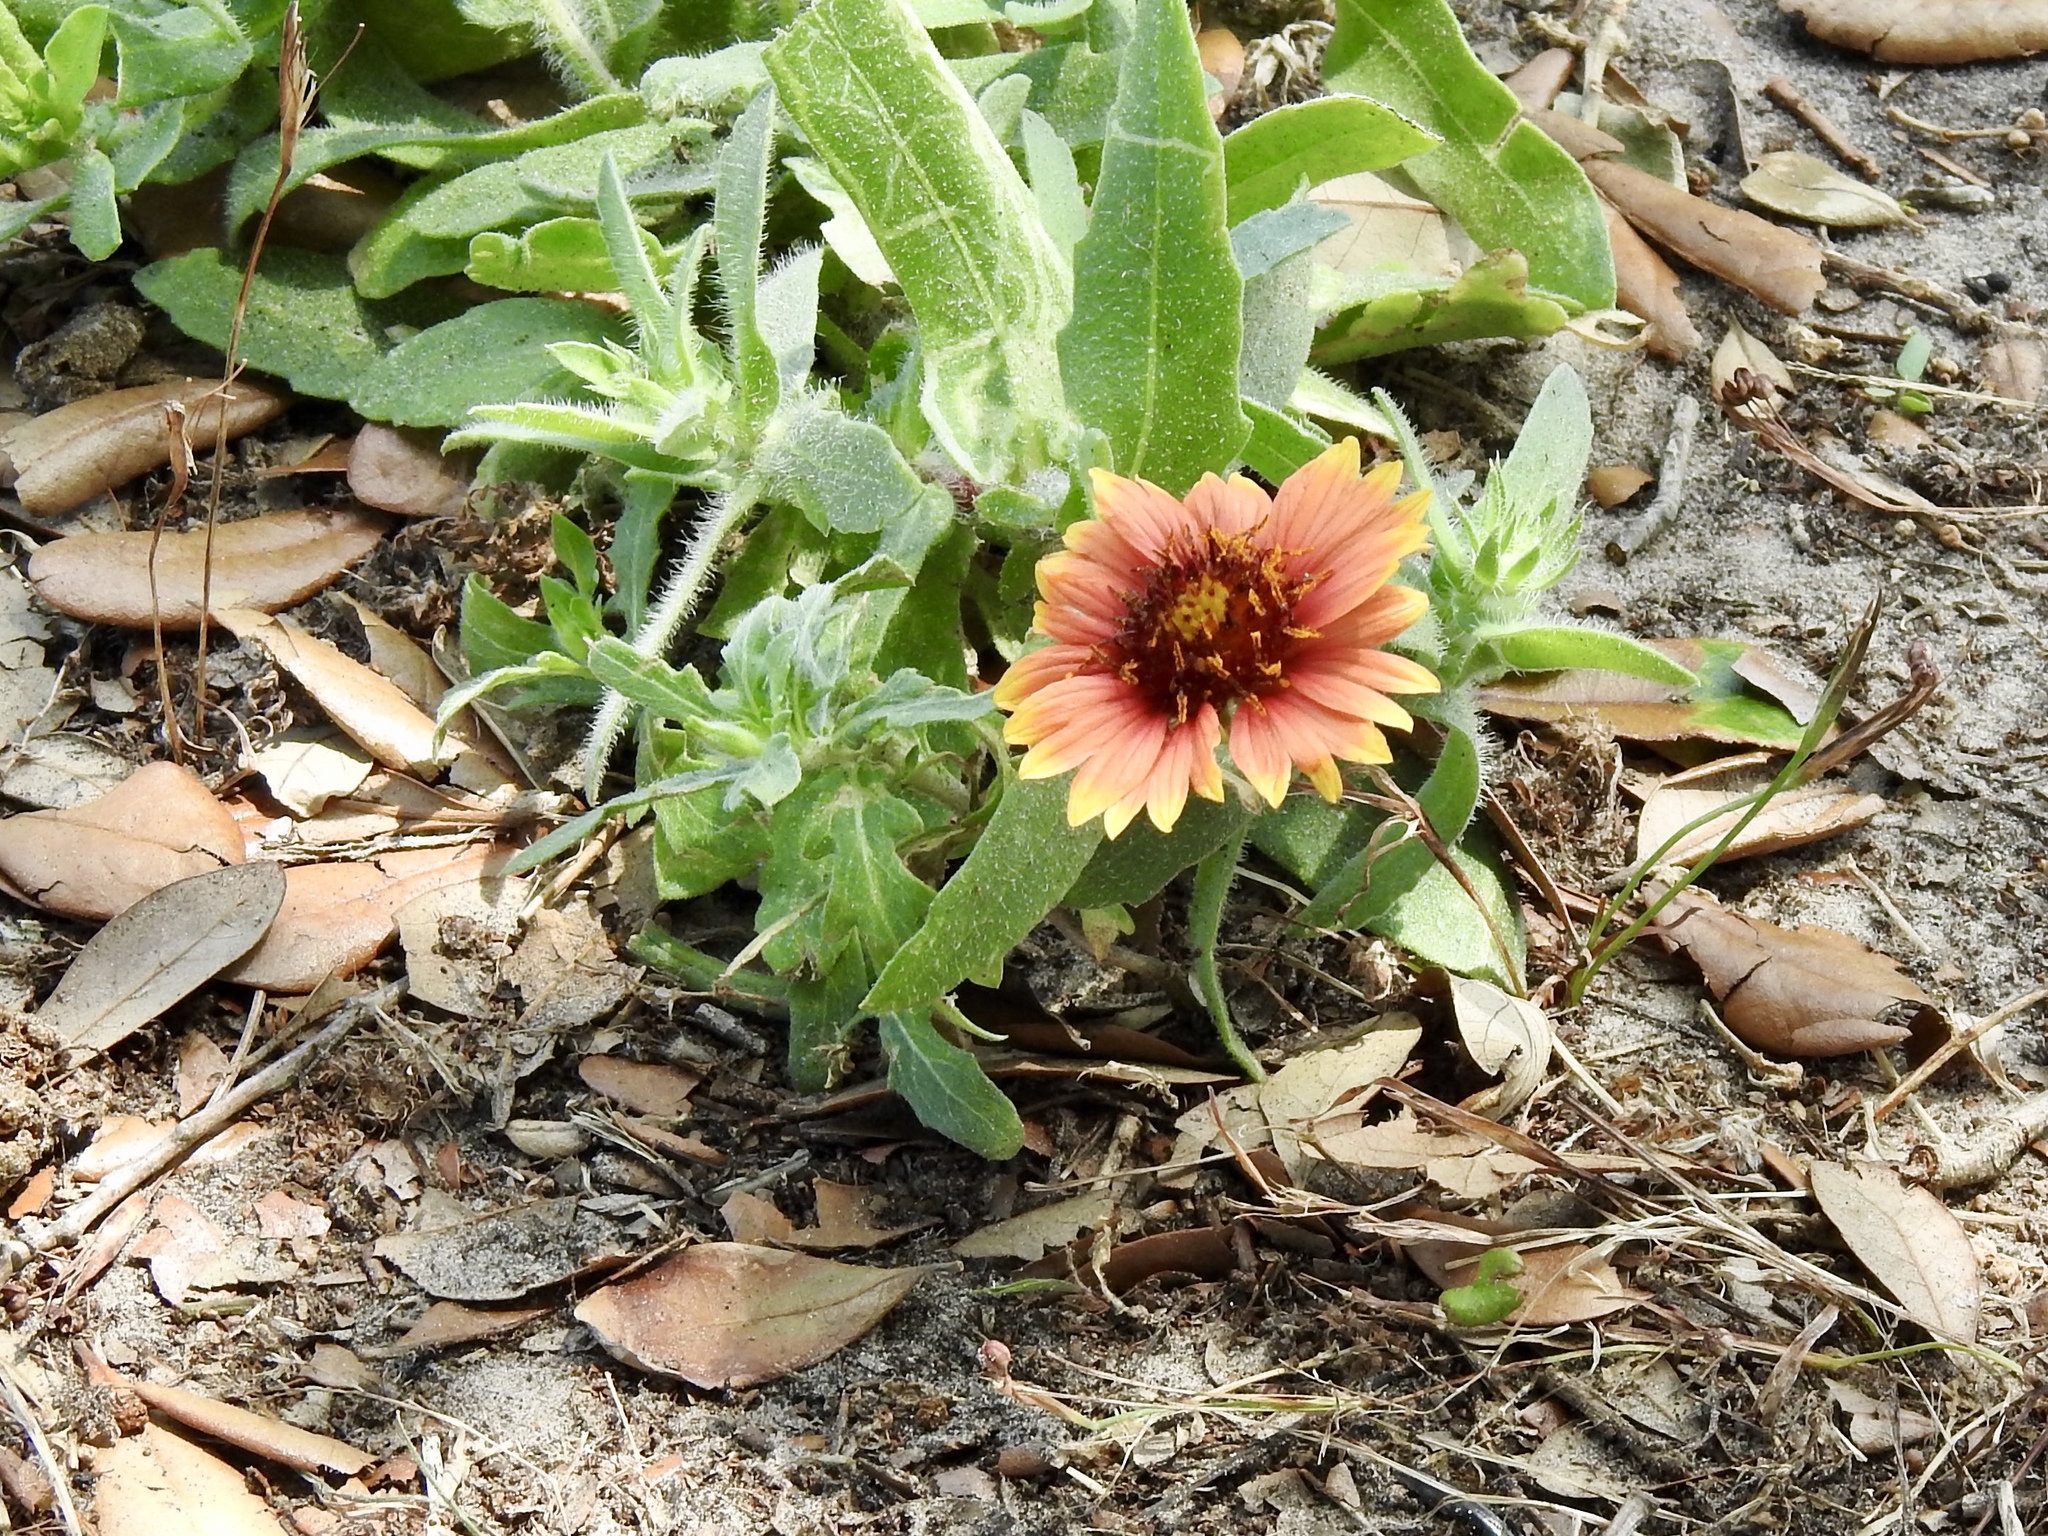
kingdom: Plantae
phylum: Tracheophyta
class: Magnoliopsida
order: Asterales
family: Asteraceae
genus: Gaillardia
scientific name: Gaillardia pulchella
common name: Firewheel
